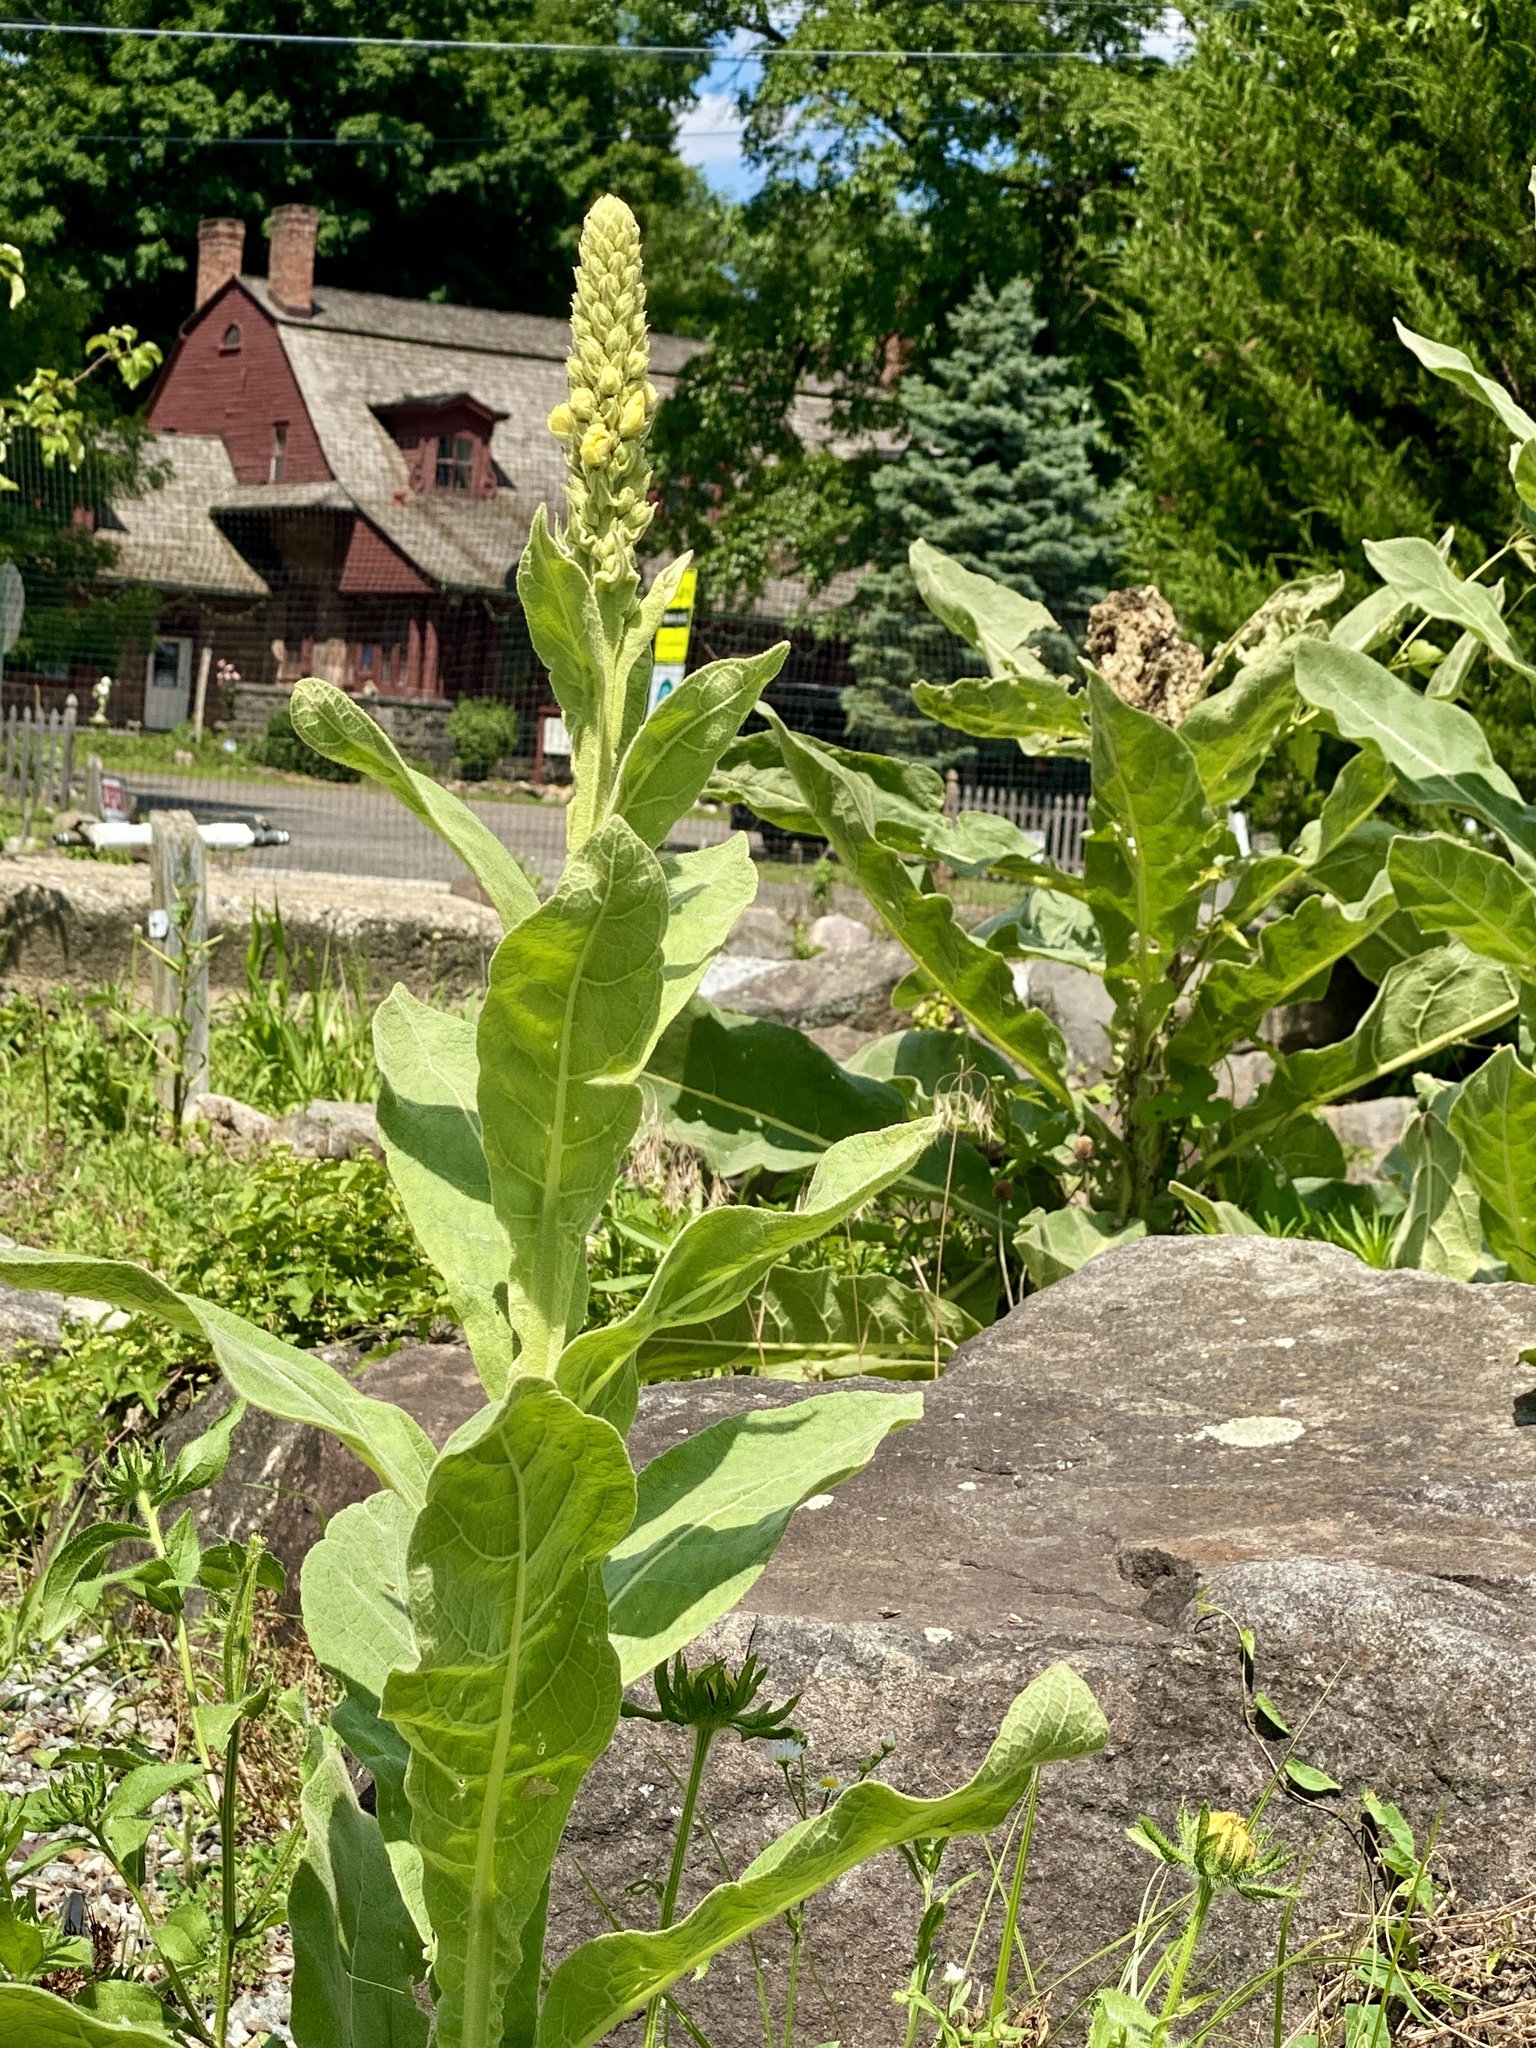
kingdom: Plantae
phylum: Tracheophyta
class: Magnoliopsida
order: Lamiales
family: Scrophulariaceae
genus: Verbascum
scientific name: Verbascum thapsus
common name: Common mullein
